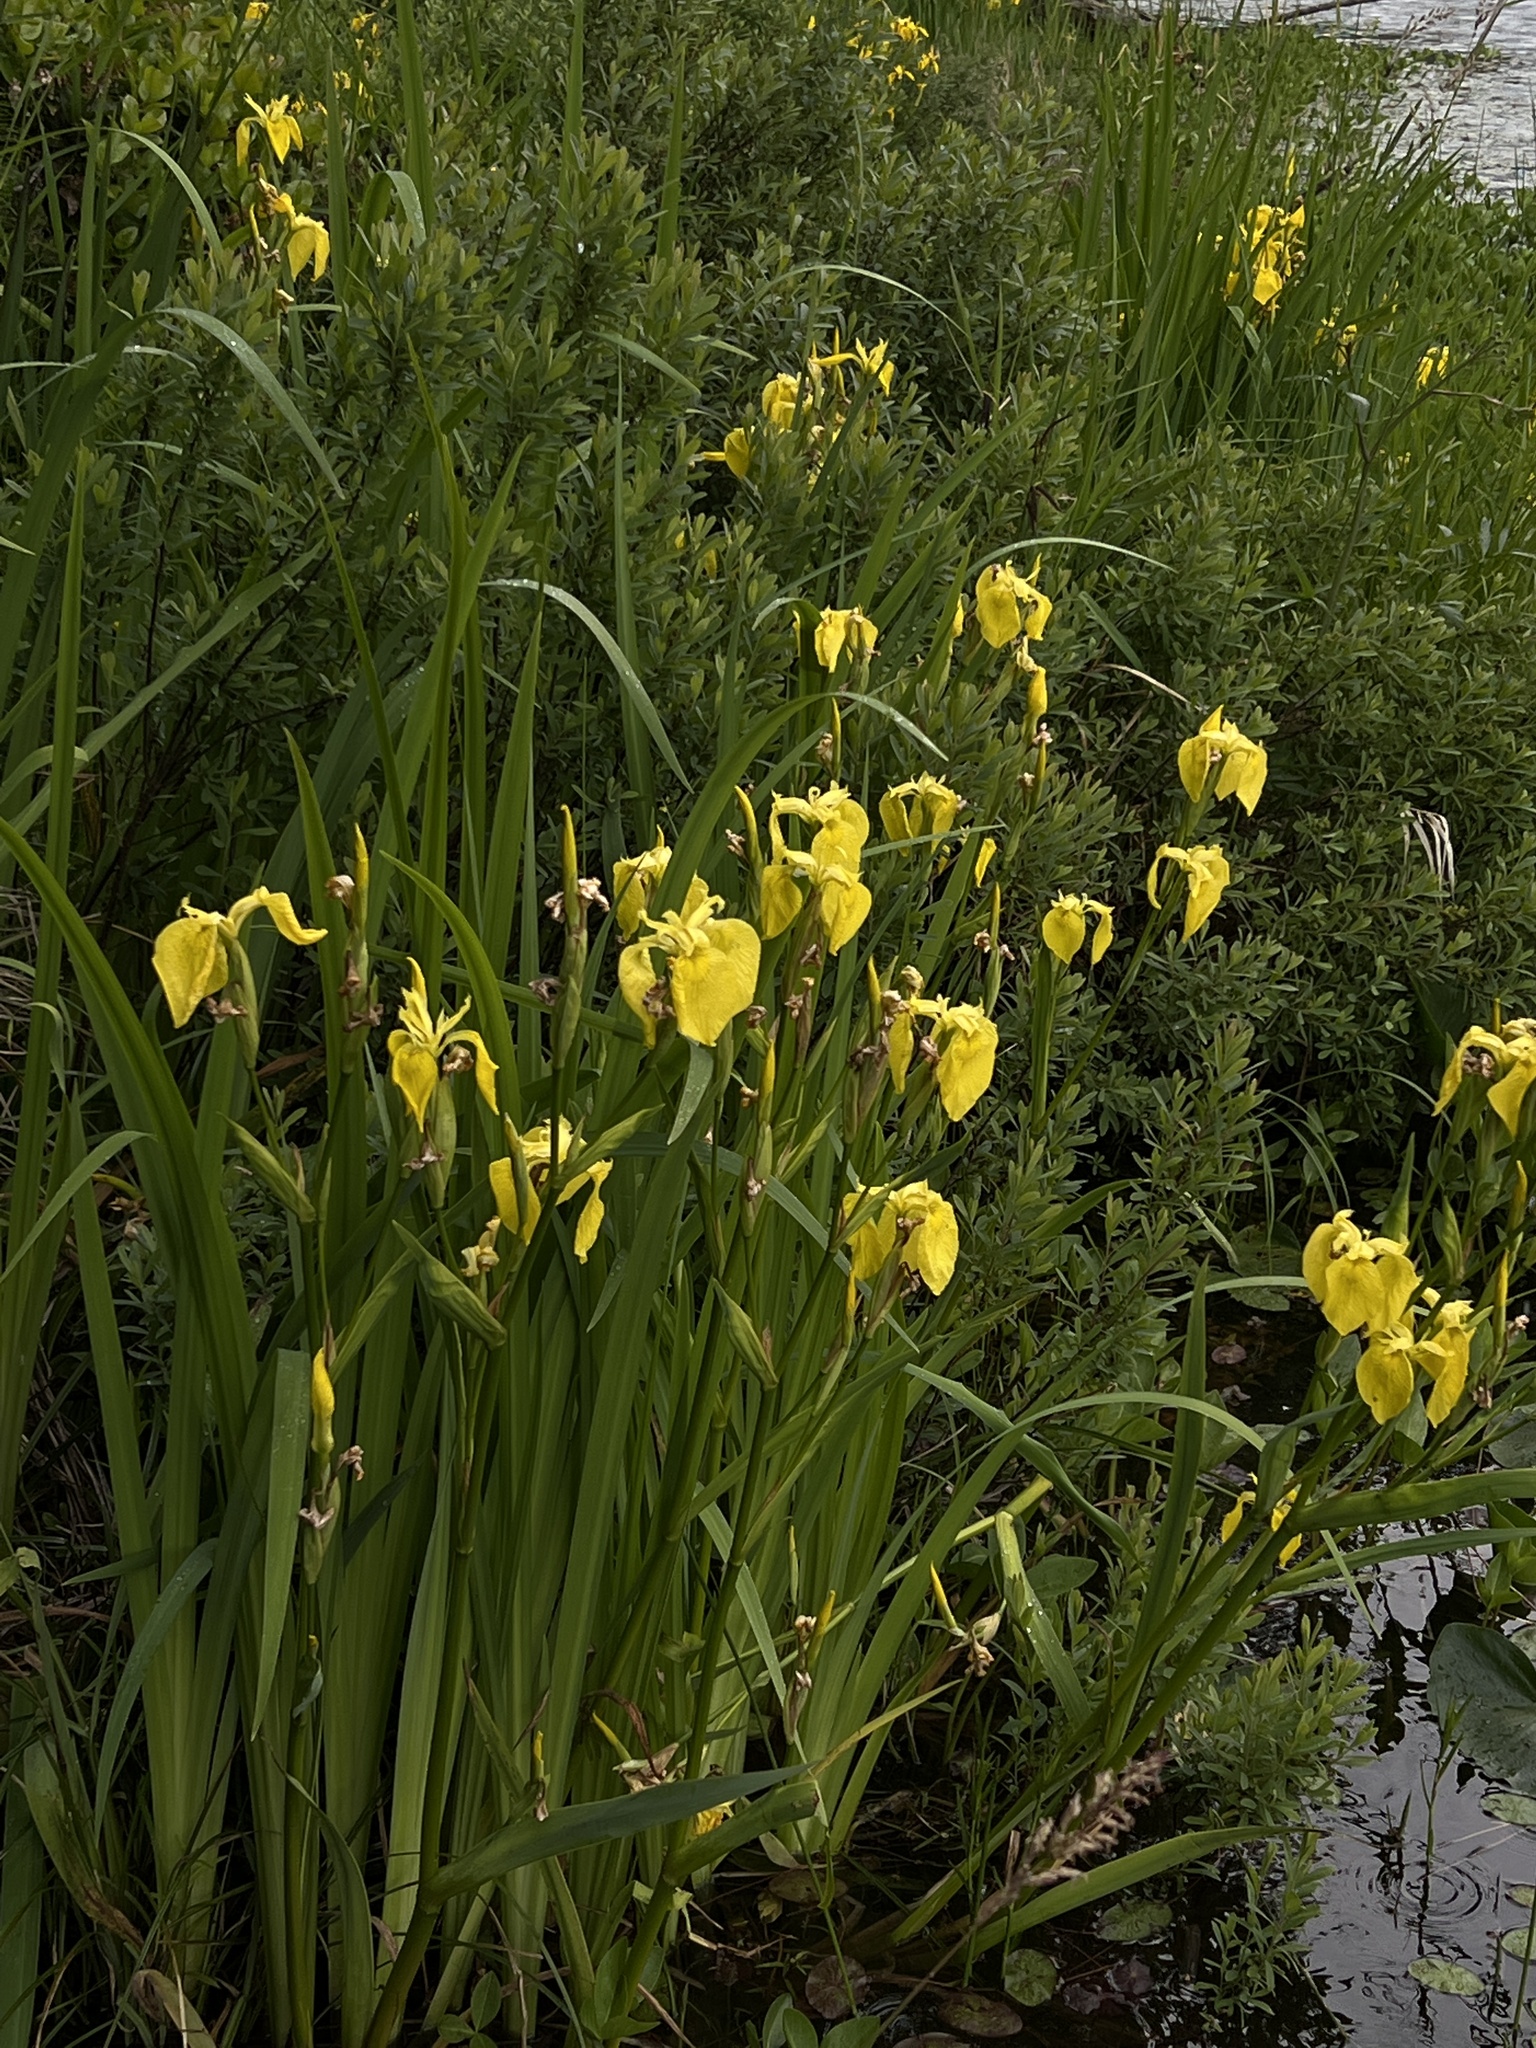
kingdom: Plantae
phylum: Tracheophyta
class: Liliopsida
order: Asparagales
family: Iridaceae
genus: Iris
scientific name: Iris pseudacorus
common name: Yellow flag
